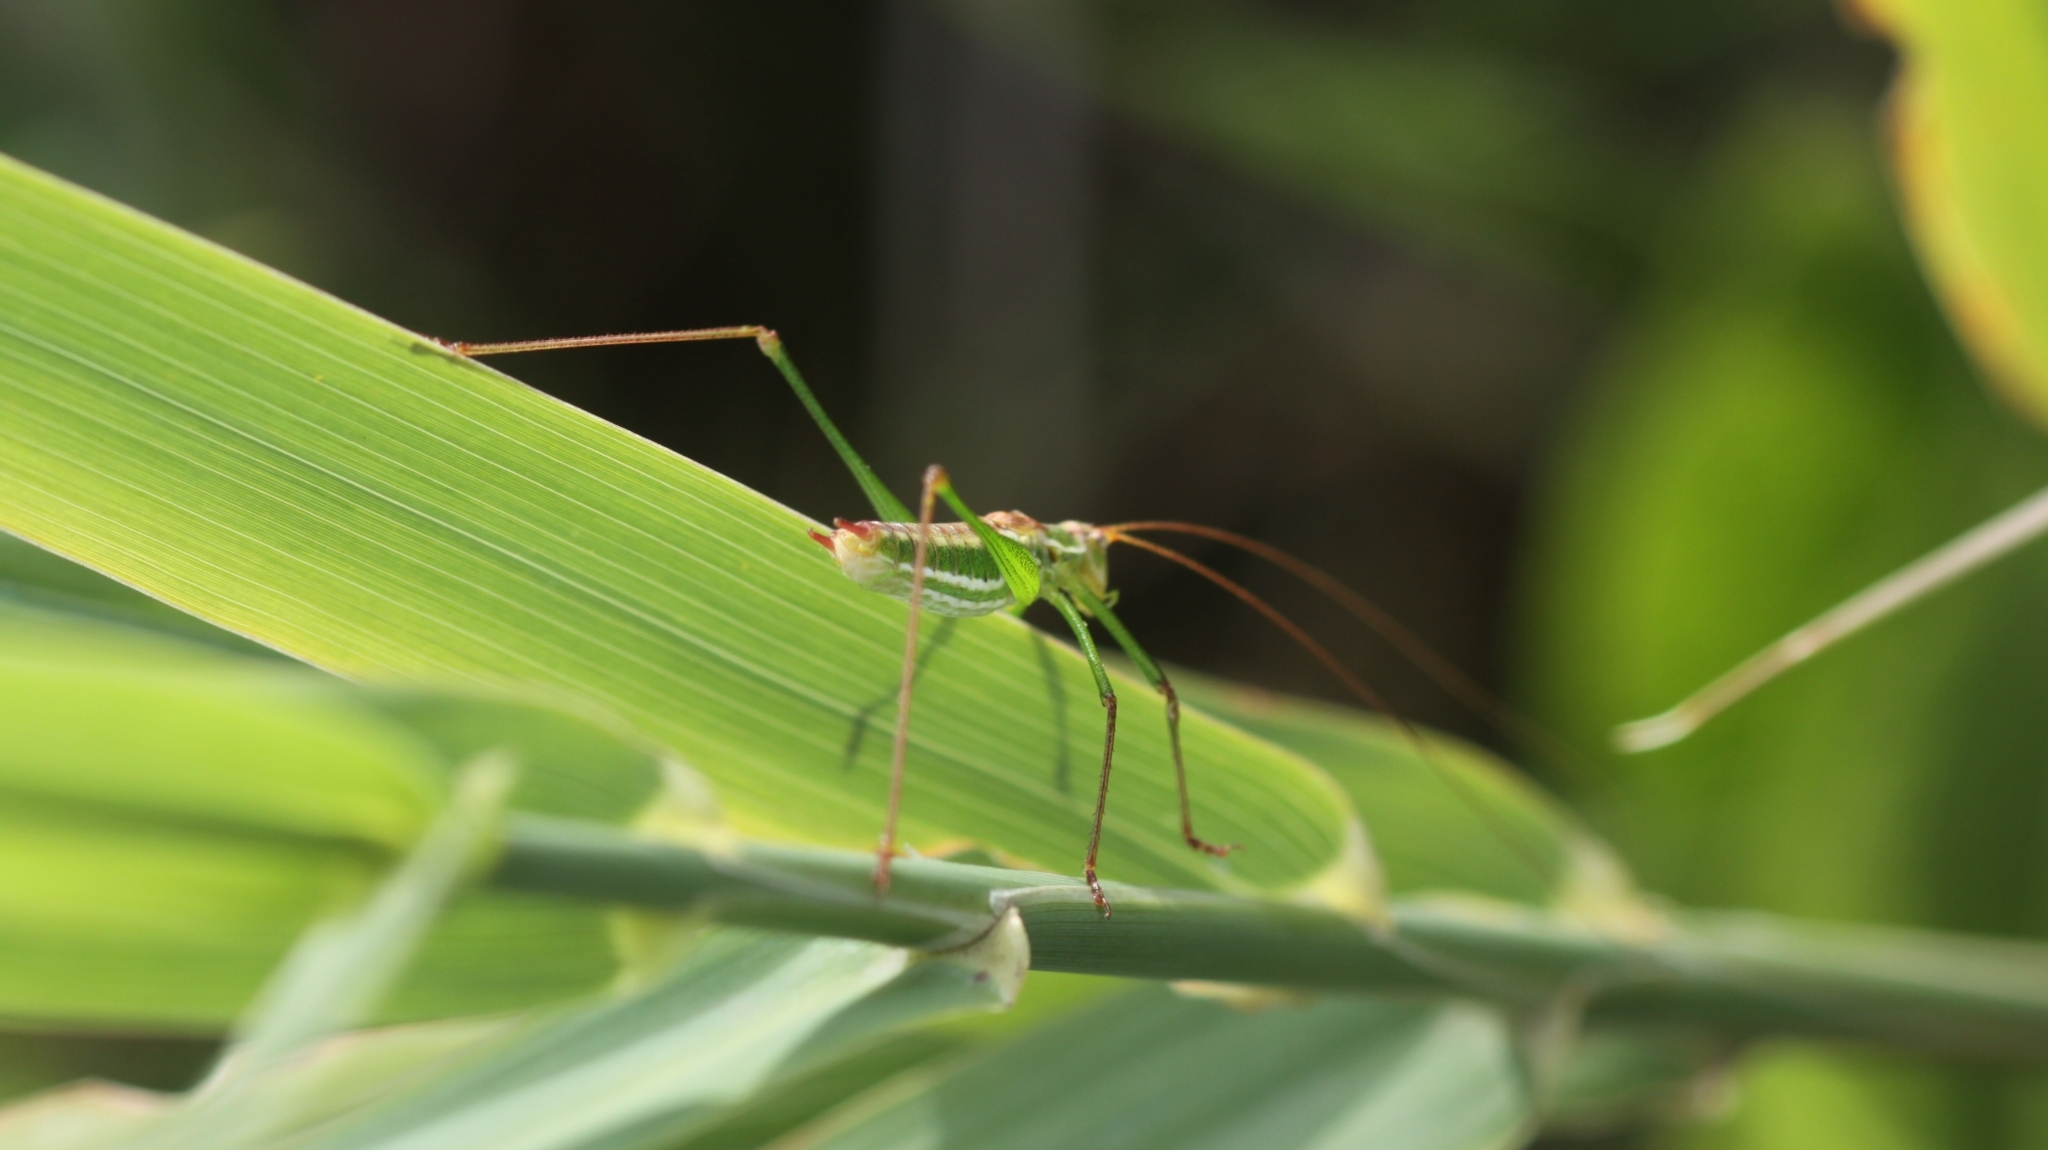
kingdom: Animalia
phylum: Arthropoda
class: Insecta
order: Orthoptera
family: Tettigoniidae
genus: Leptophyes
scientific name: Leptophyes albovittata
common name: Striped bush-cricket
